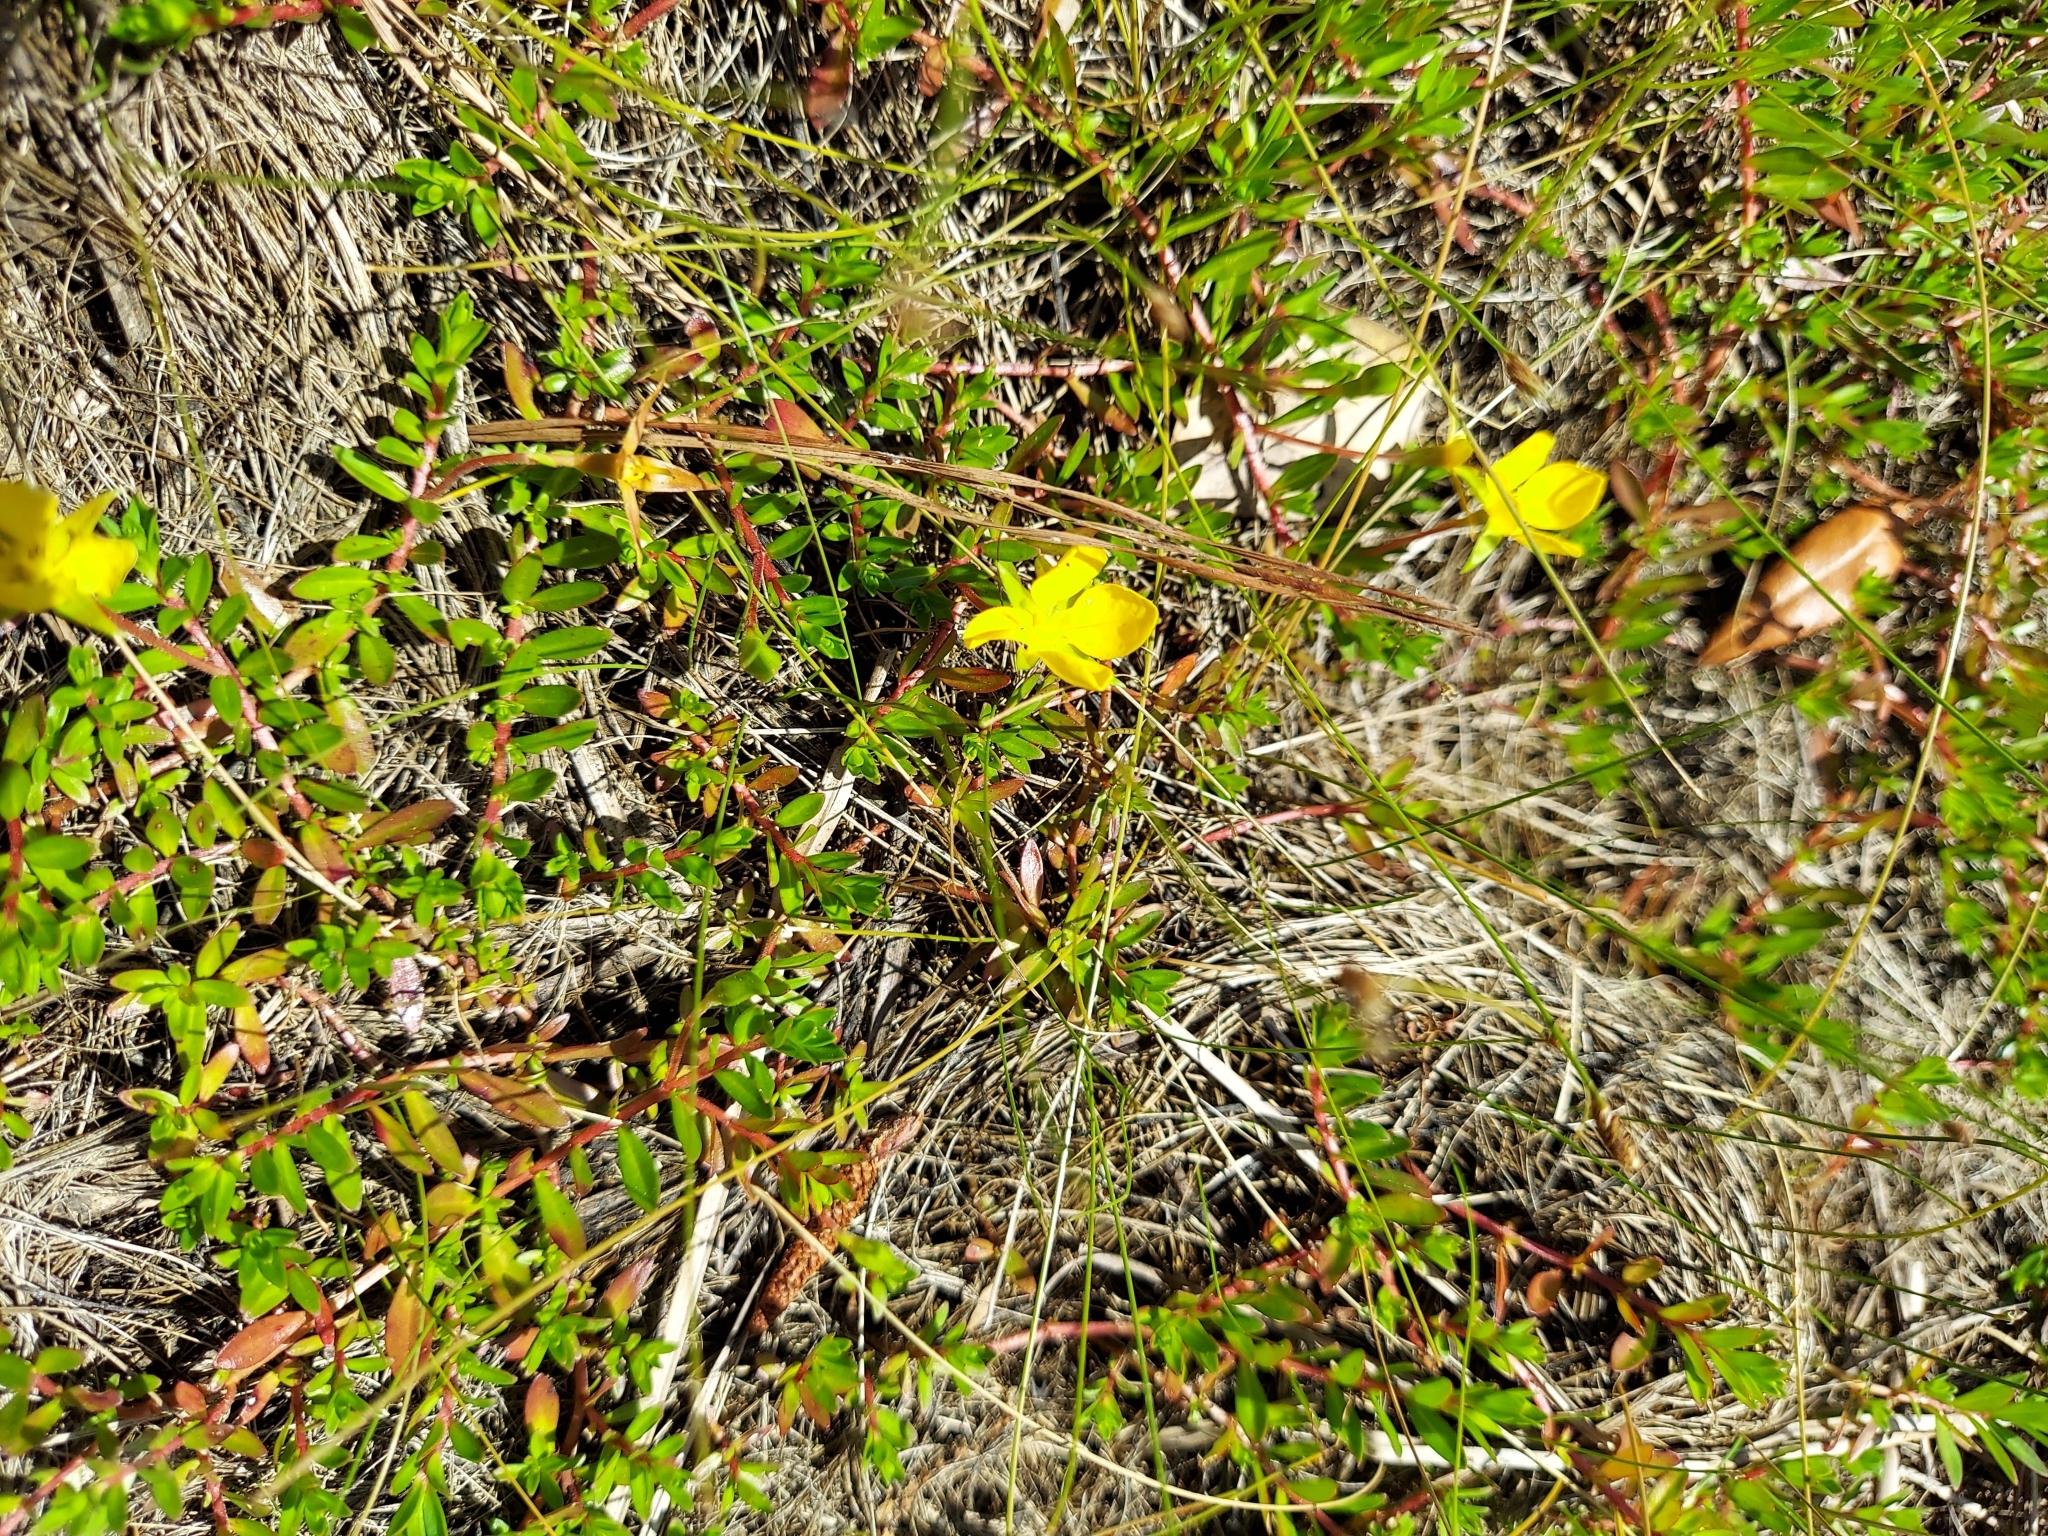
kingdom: Plantae
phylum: Tracheophyta
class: Magnoliopsida
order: Myrtales
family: Onagraceae
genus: Ludwigia
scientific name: Ludwigia arcuata
